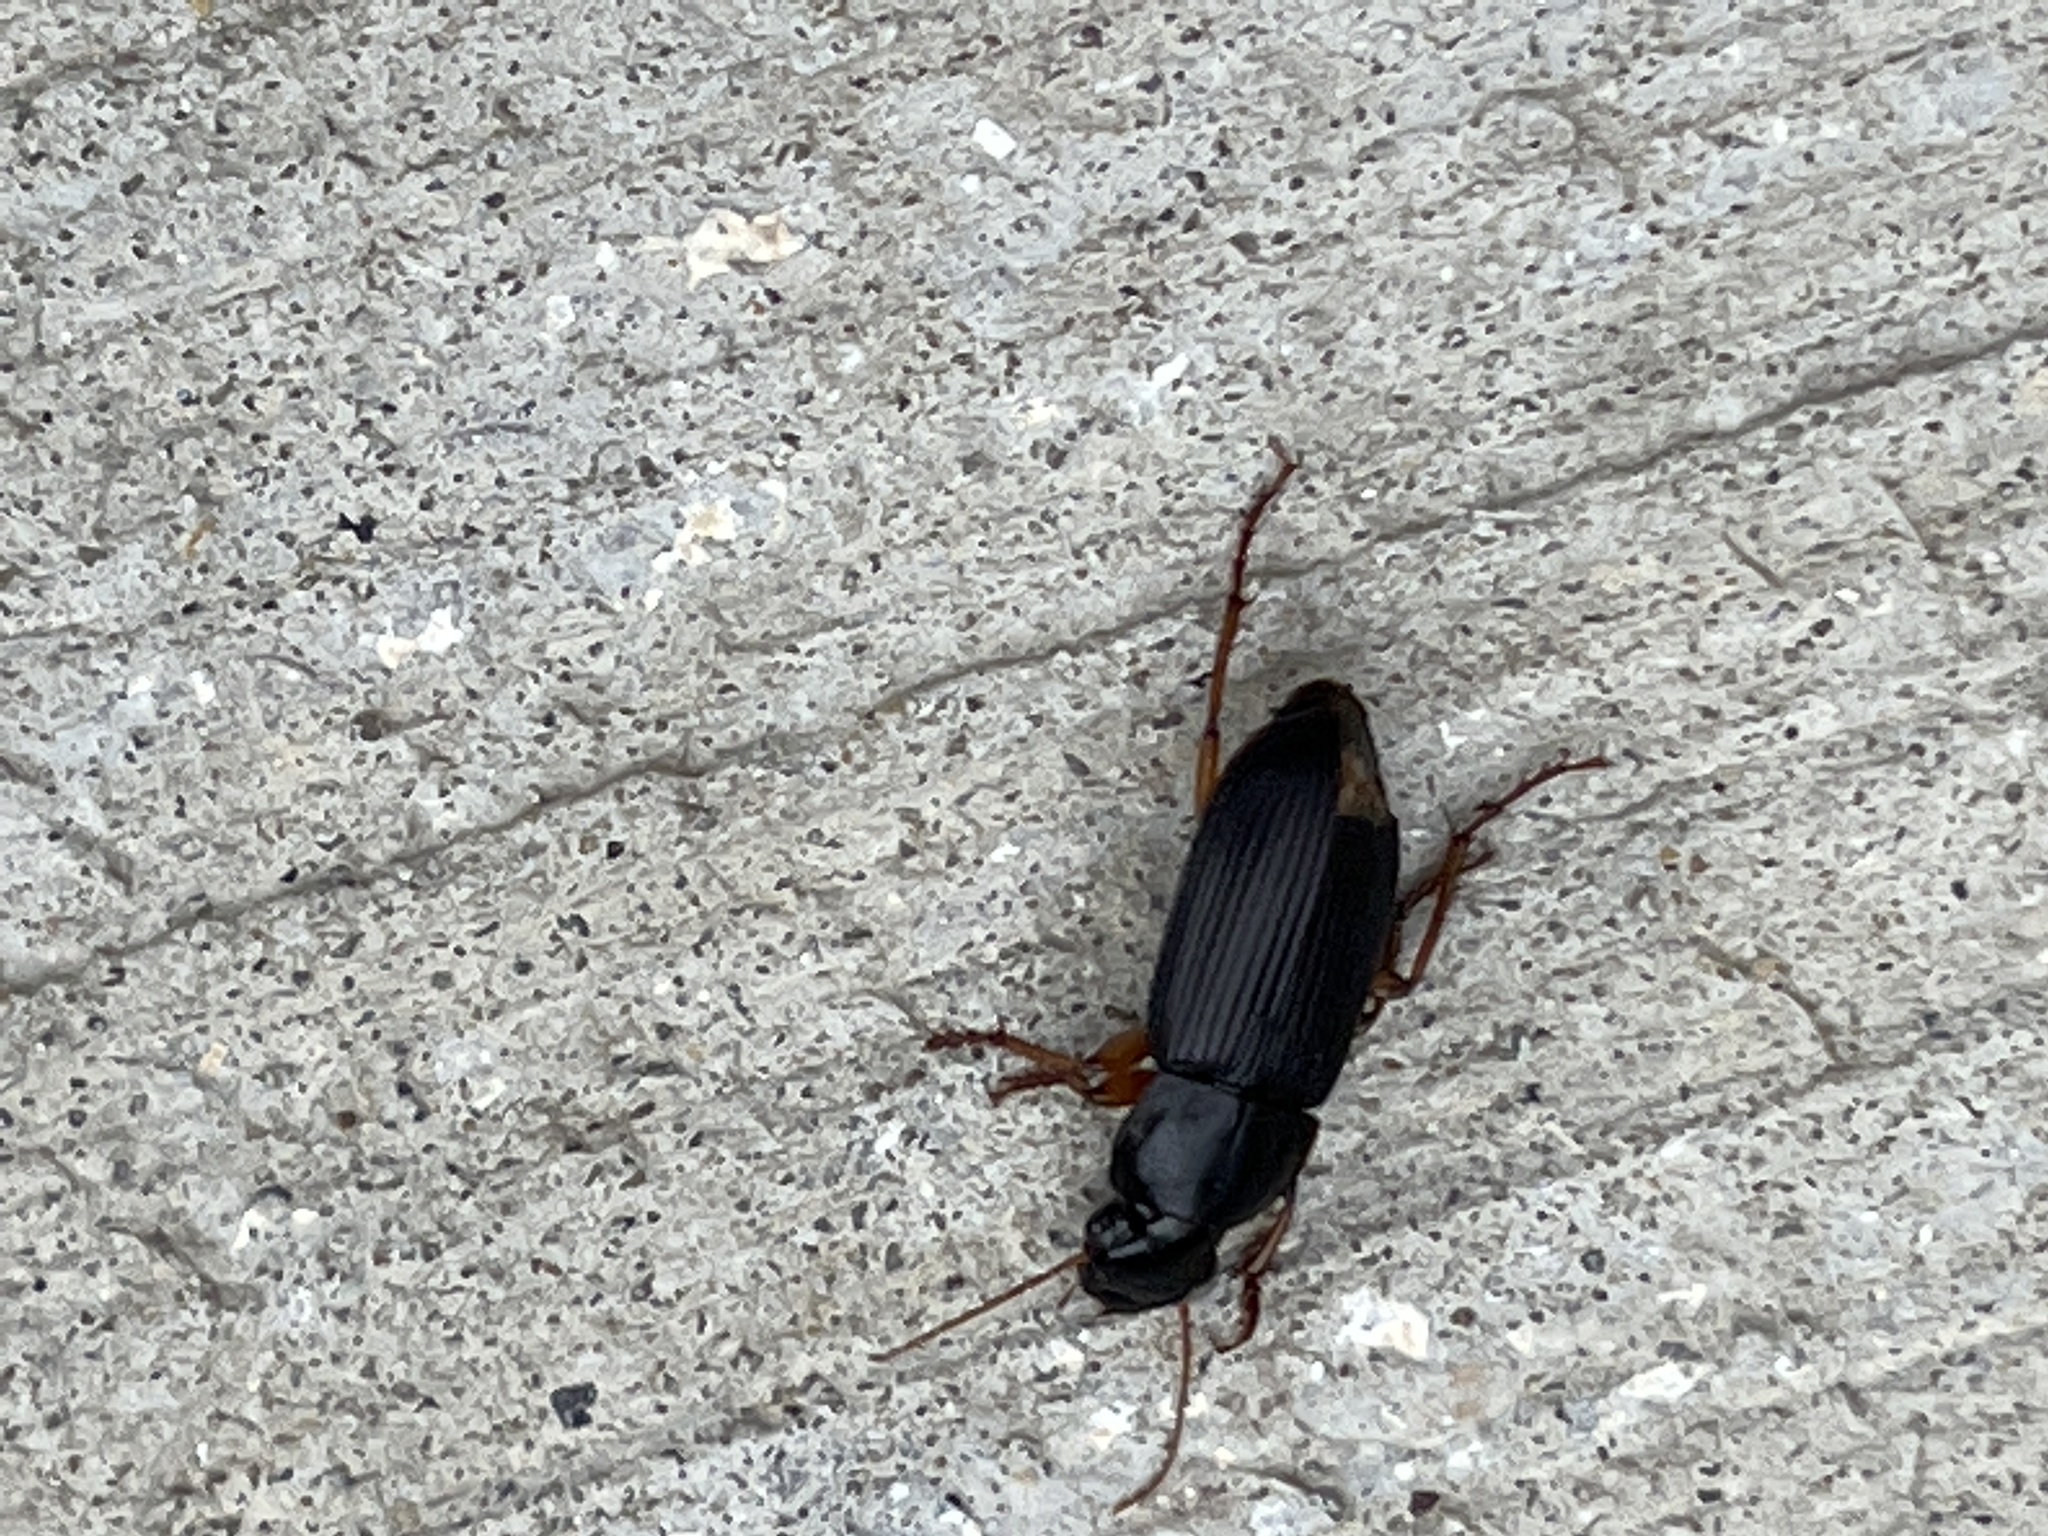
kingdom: Animalia
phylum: Arthropoda
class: Insecta
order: Coleoptera
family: Carabidae
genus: Harpalus
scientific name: Harpalus pensylvanicus
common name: Pennsylvania dingy ground beetle
